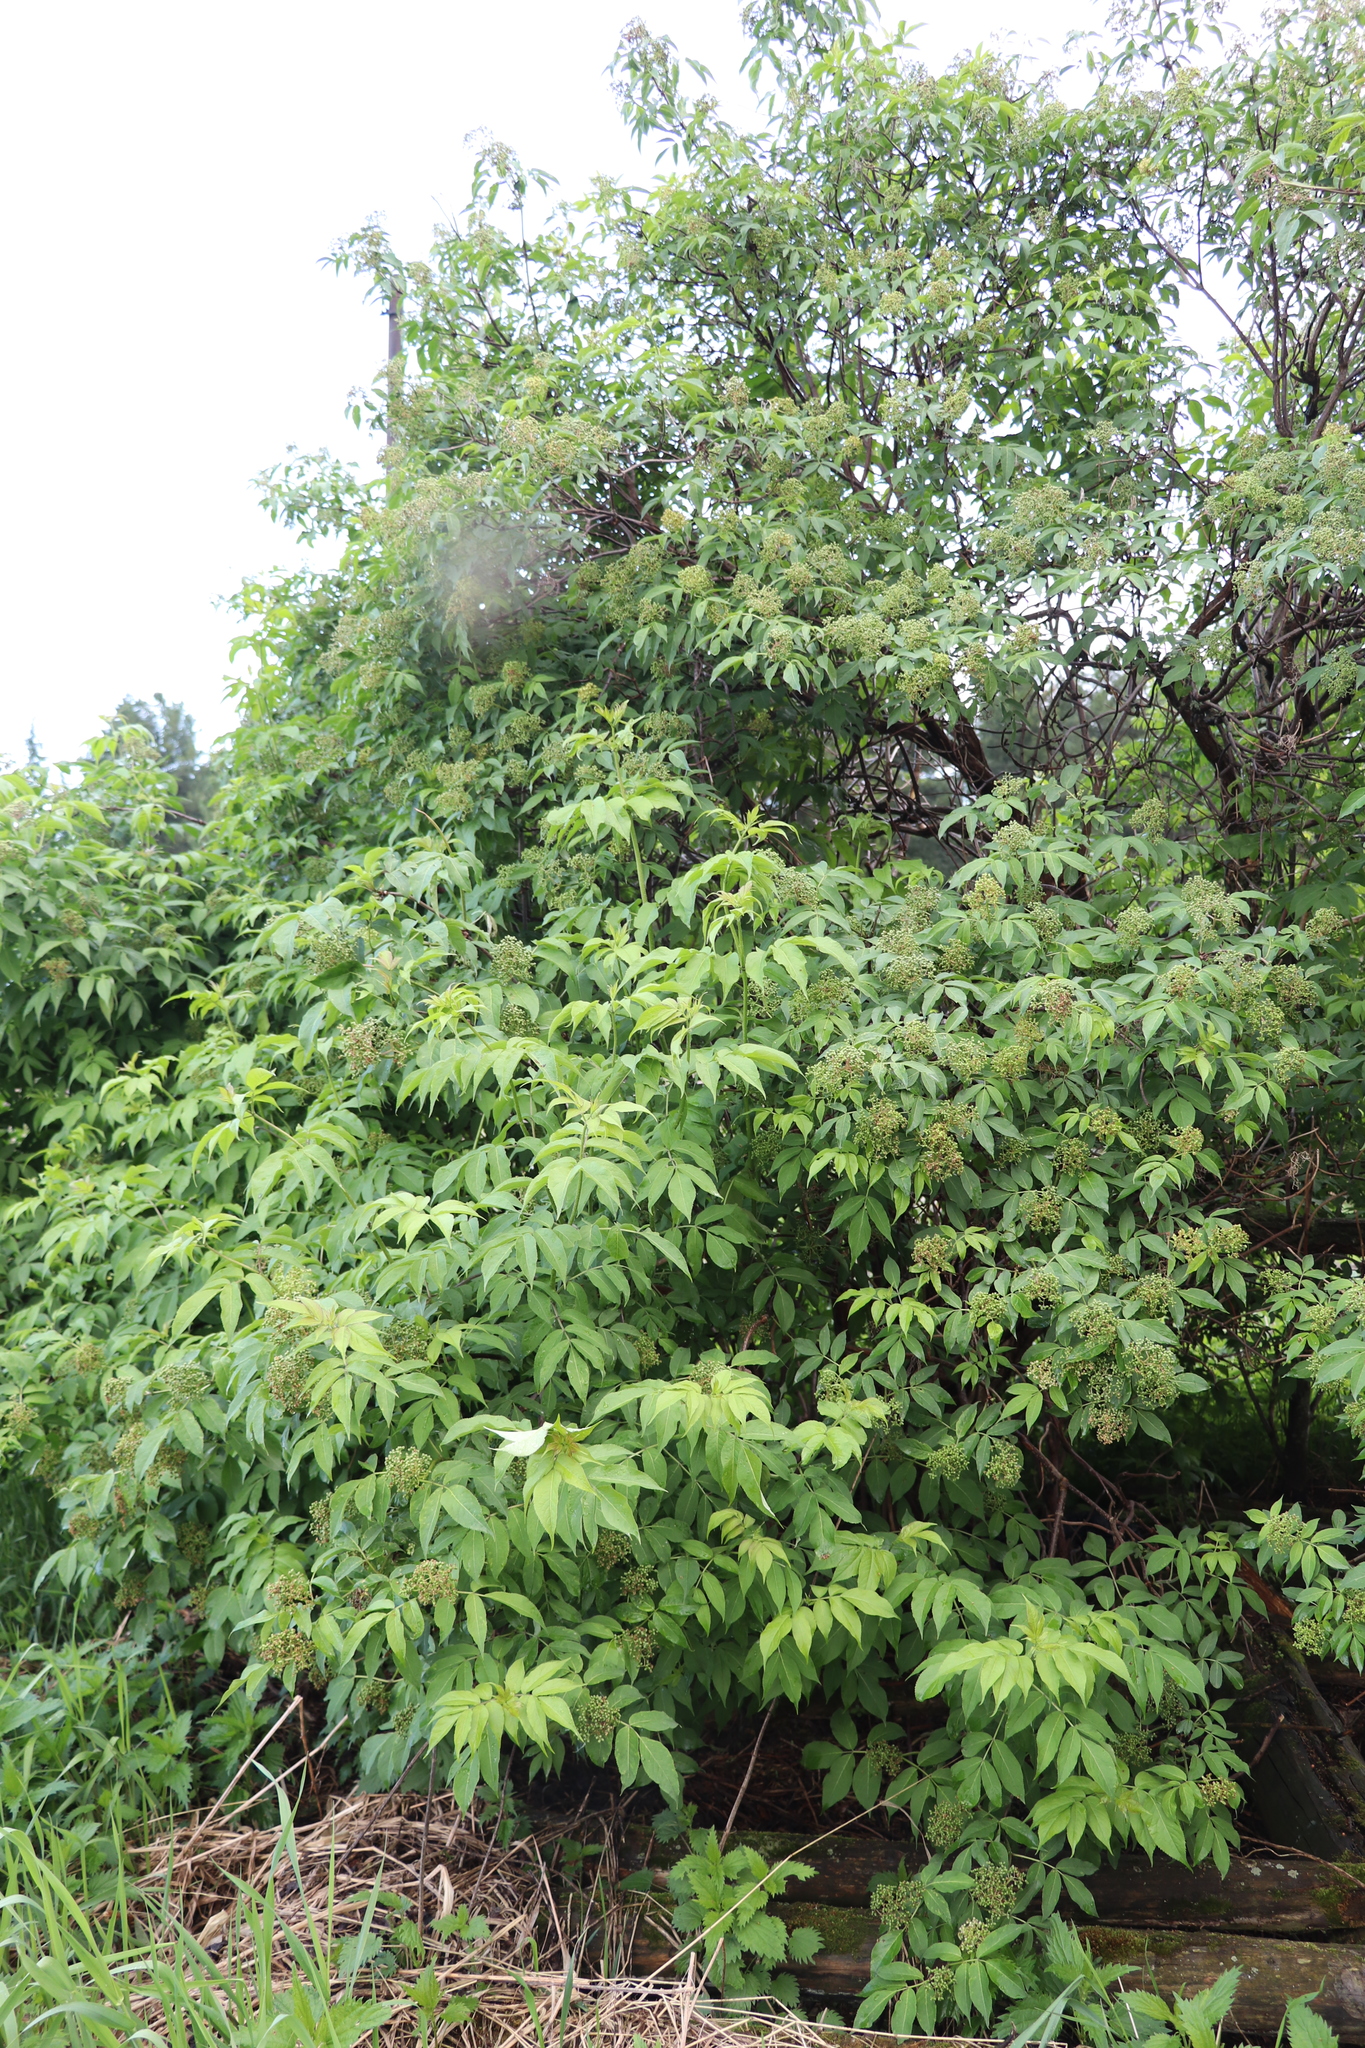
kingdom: Plantae
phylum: Tracheophyta
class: Magnoliopsida
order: Dipsacales
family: Viburnaceae
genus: Sambucus
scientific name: Sambucus sibirica
